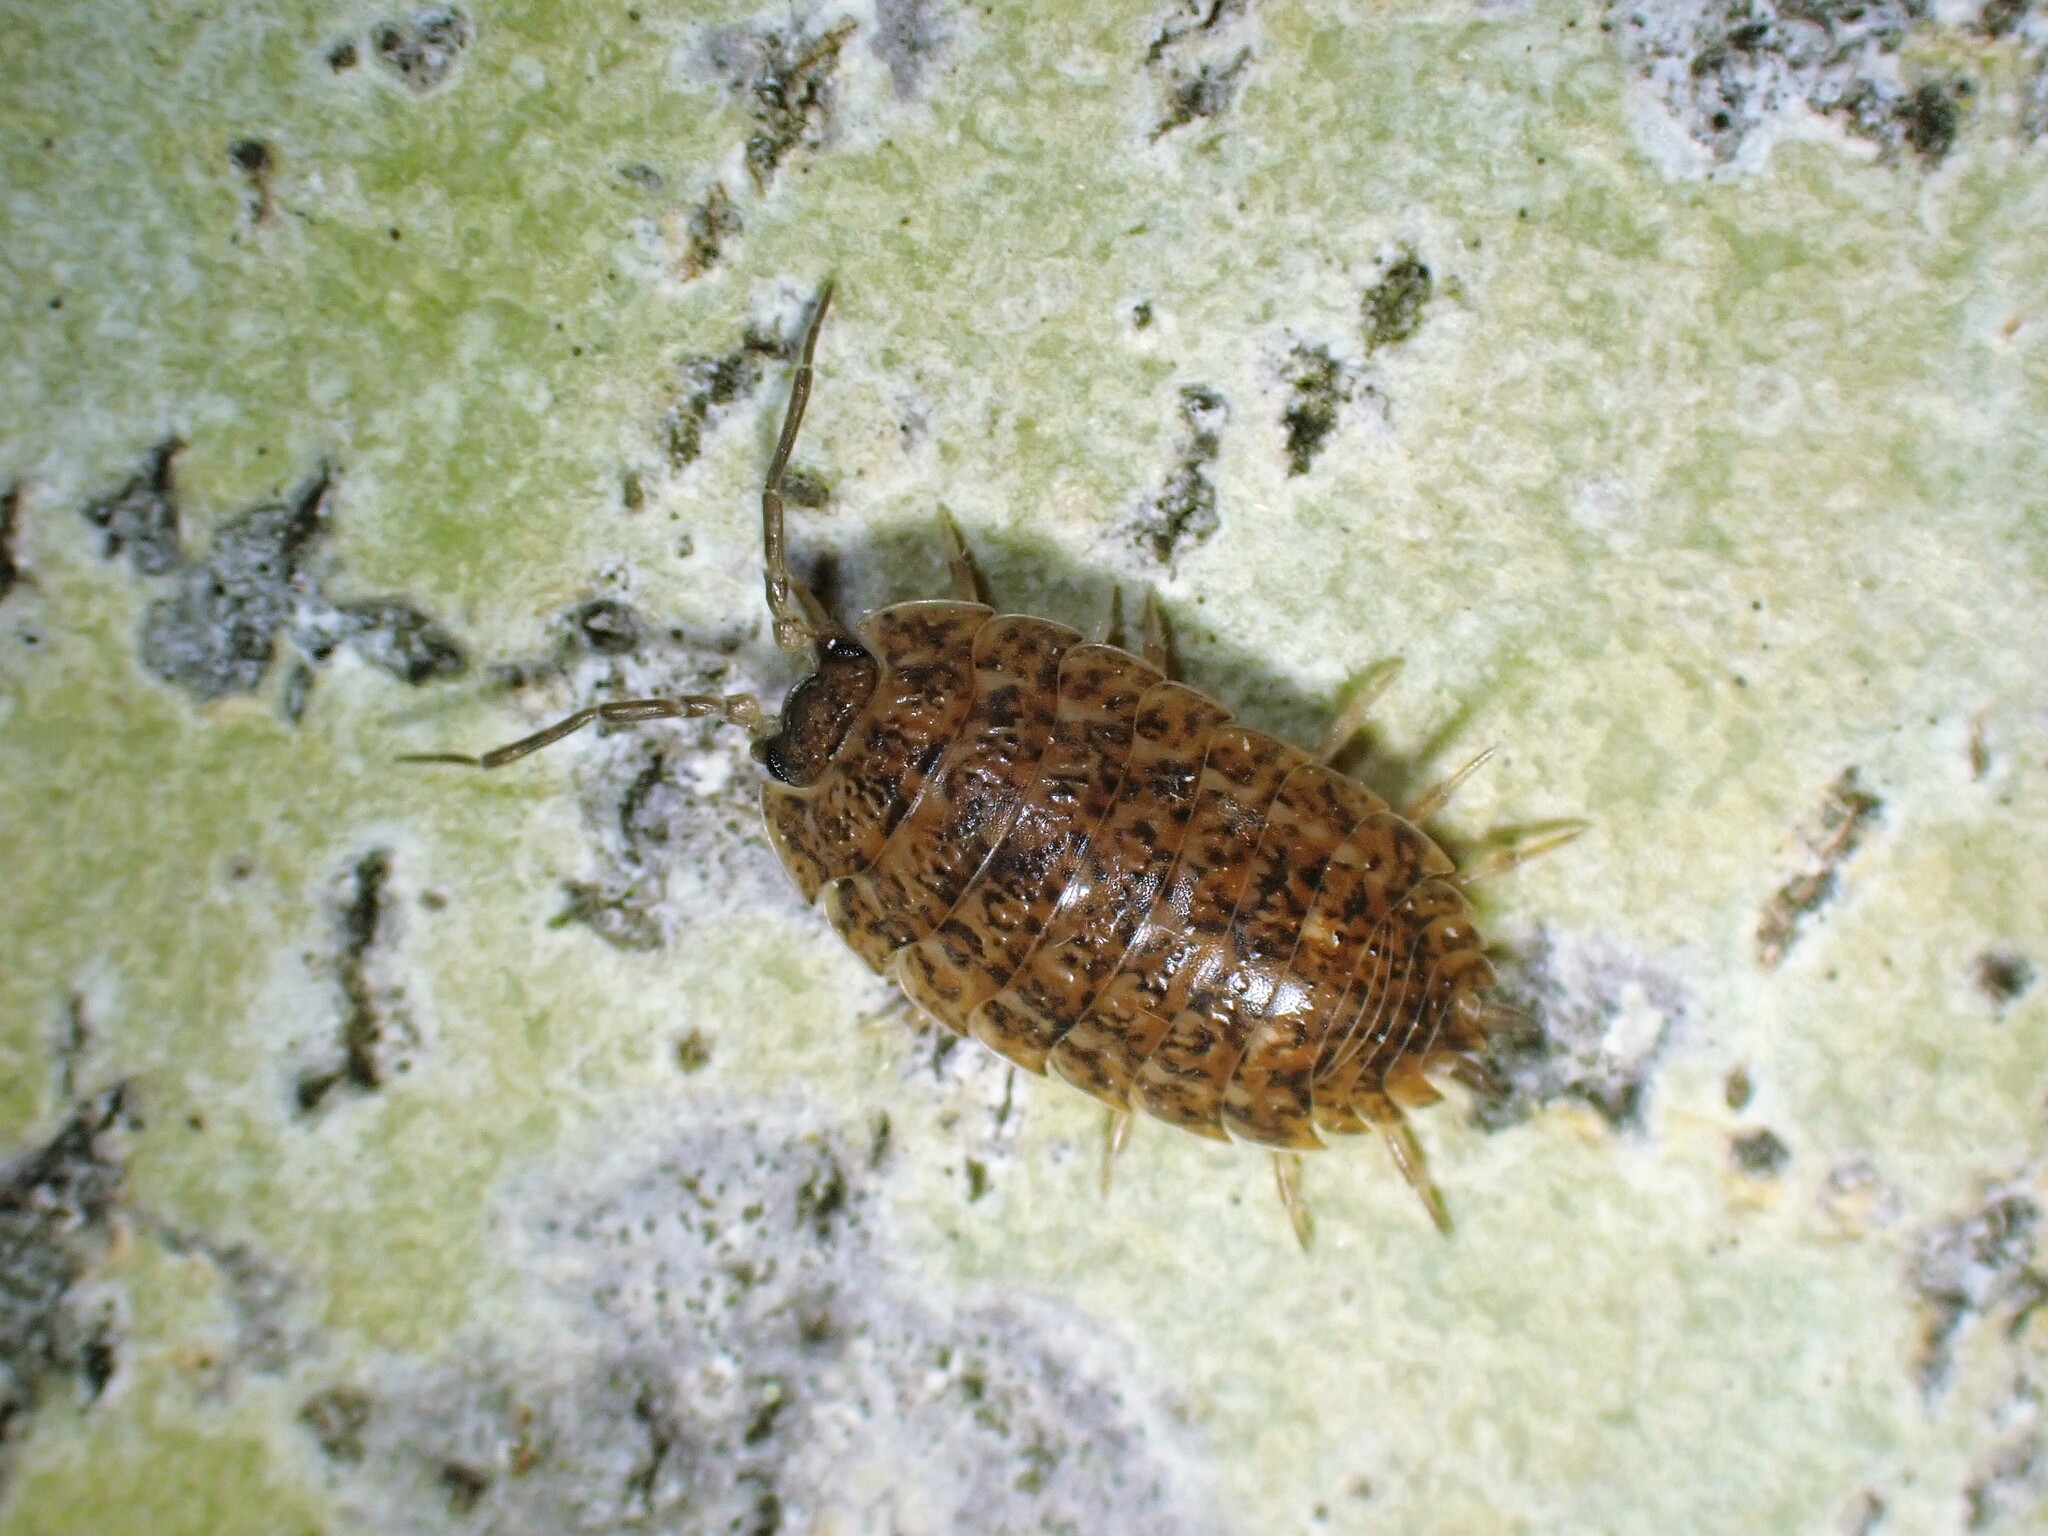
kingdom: Animalia
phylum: Arthropoda
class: Malacostraca
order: Isopoda
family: Trachelipodidae
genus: Trachelipus
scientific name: Trachelipus rathkii
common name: Isopod
